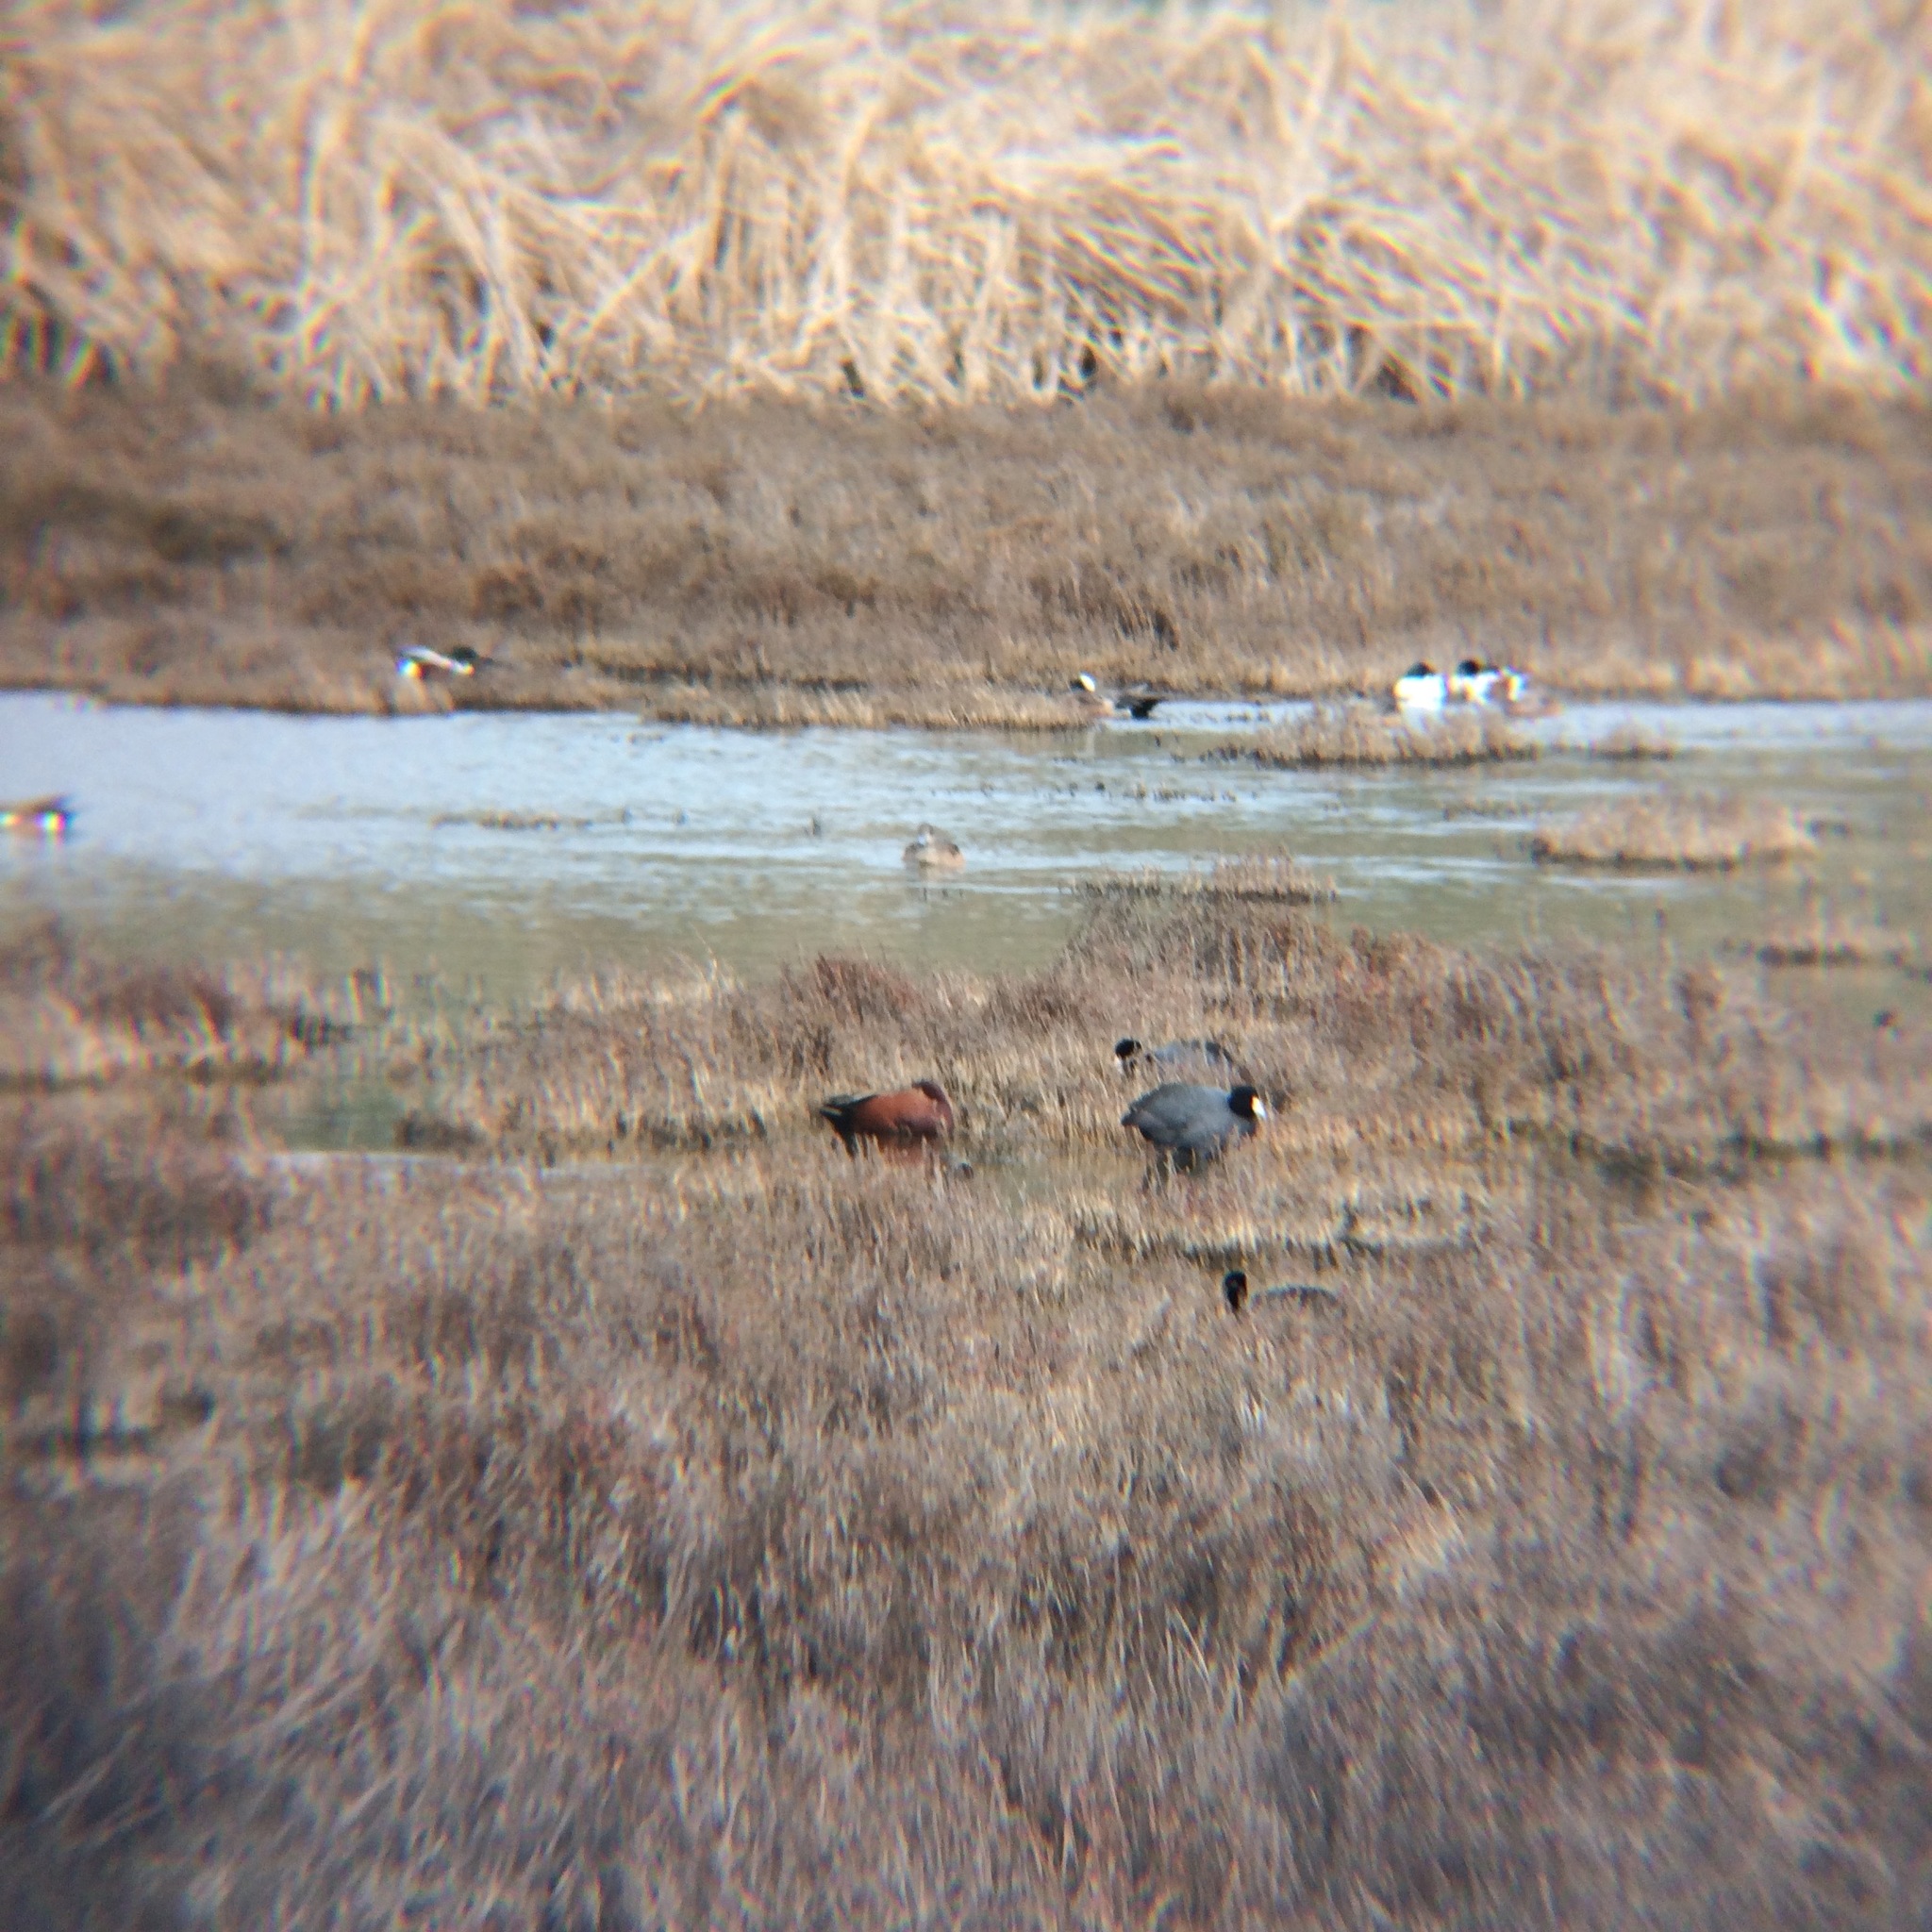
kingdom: Animalia
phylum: Chordata
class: Aves
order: Anseriformes
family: Anatidae
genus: Spatula
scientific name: Spatula cyanoptera
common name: Cinnamon teal
